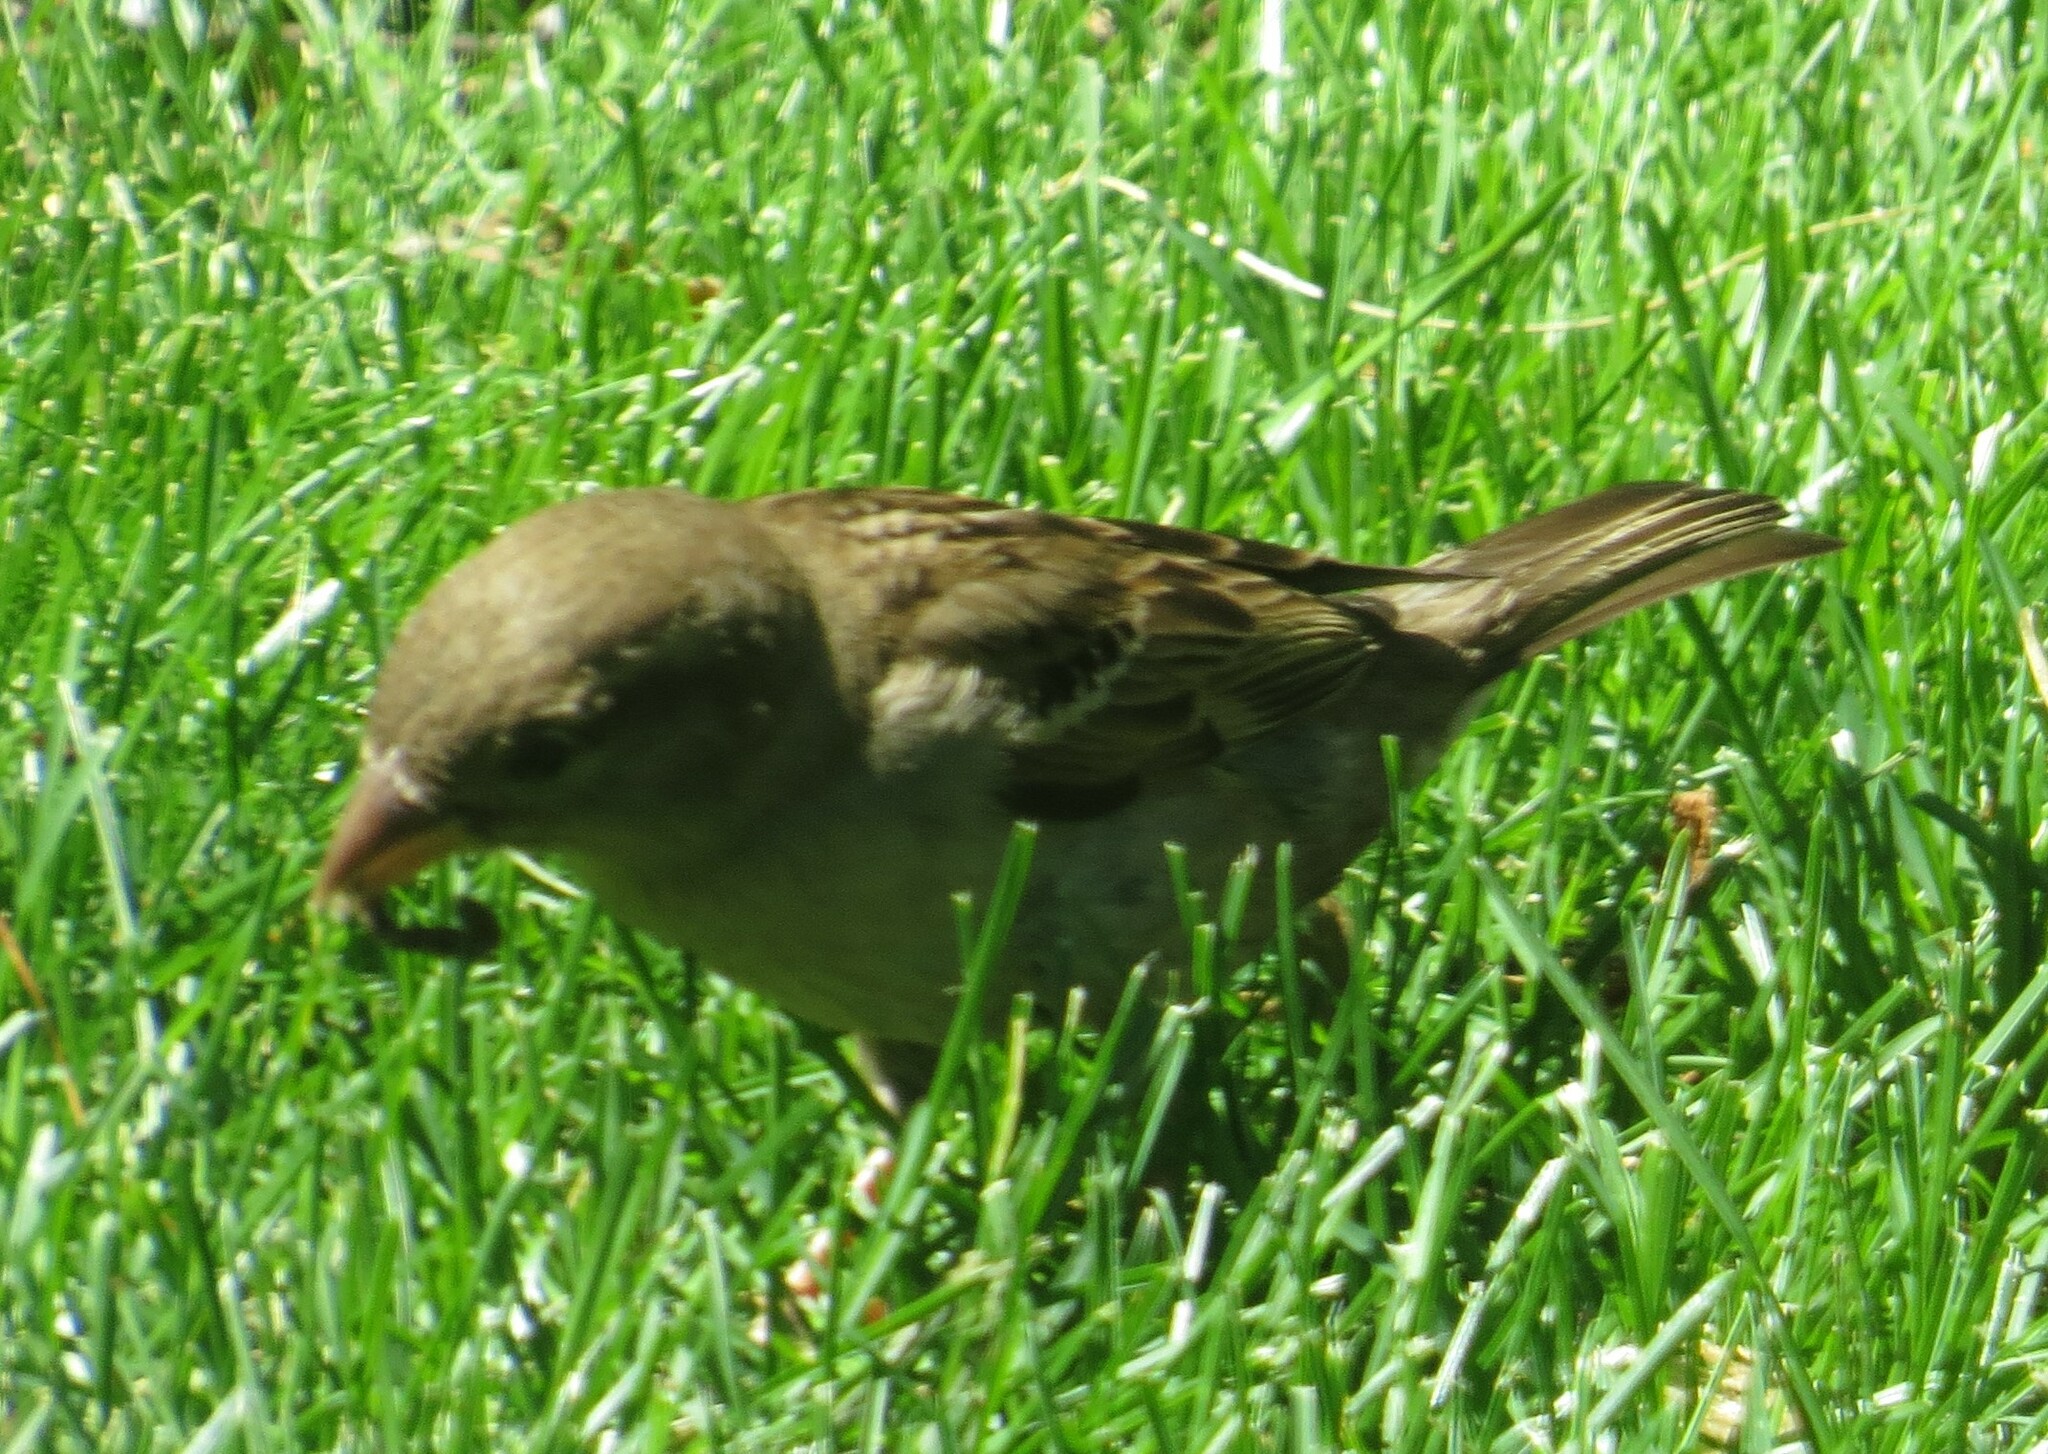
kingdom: Animalia
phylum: Chordata
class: Aves
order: Passeriformes
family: Passeridae
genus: Passer
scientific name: Passer domesticus
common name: House sparrow
